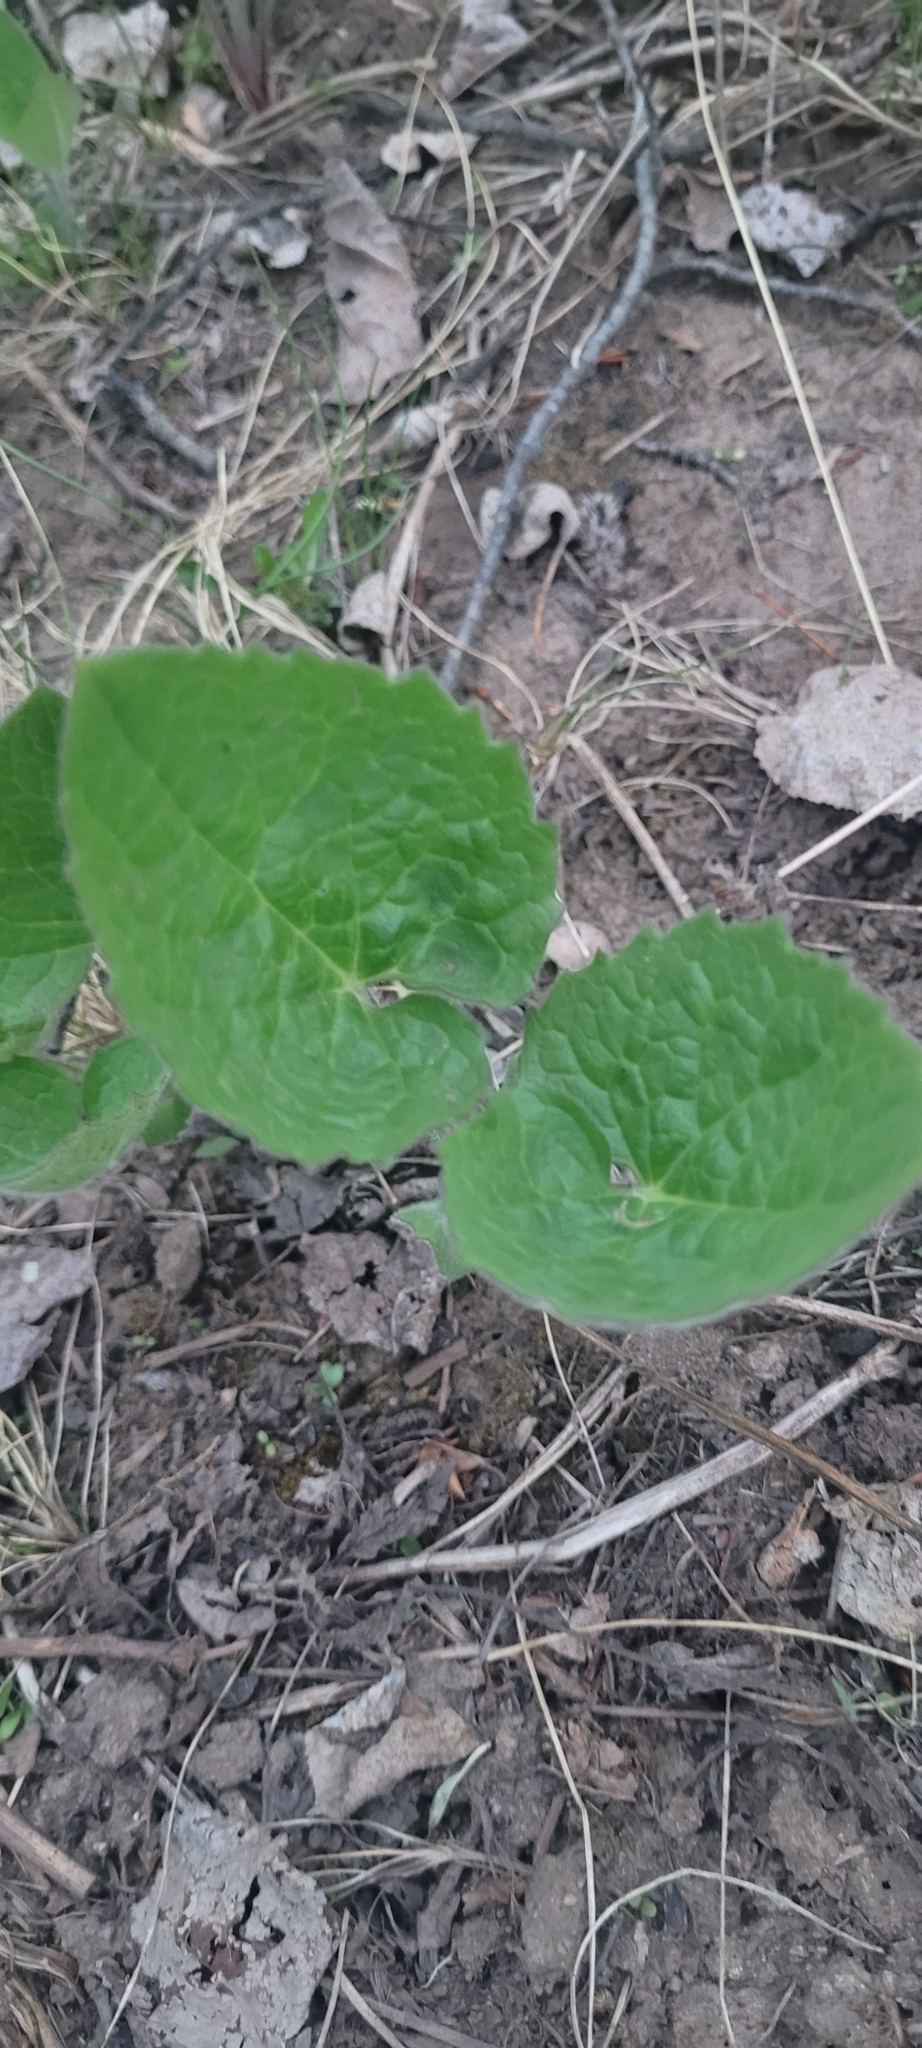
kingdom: Plantae
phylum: Tracheophyta
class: Magnoliopsida
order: Asterales
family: Asteraceae
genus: Arnica
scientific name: Arnica cordifolia
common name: Heart-leaf arnica
